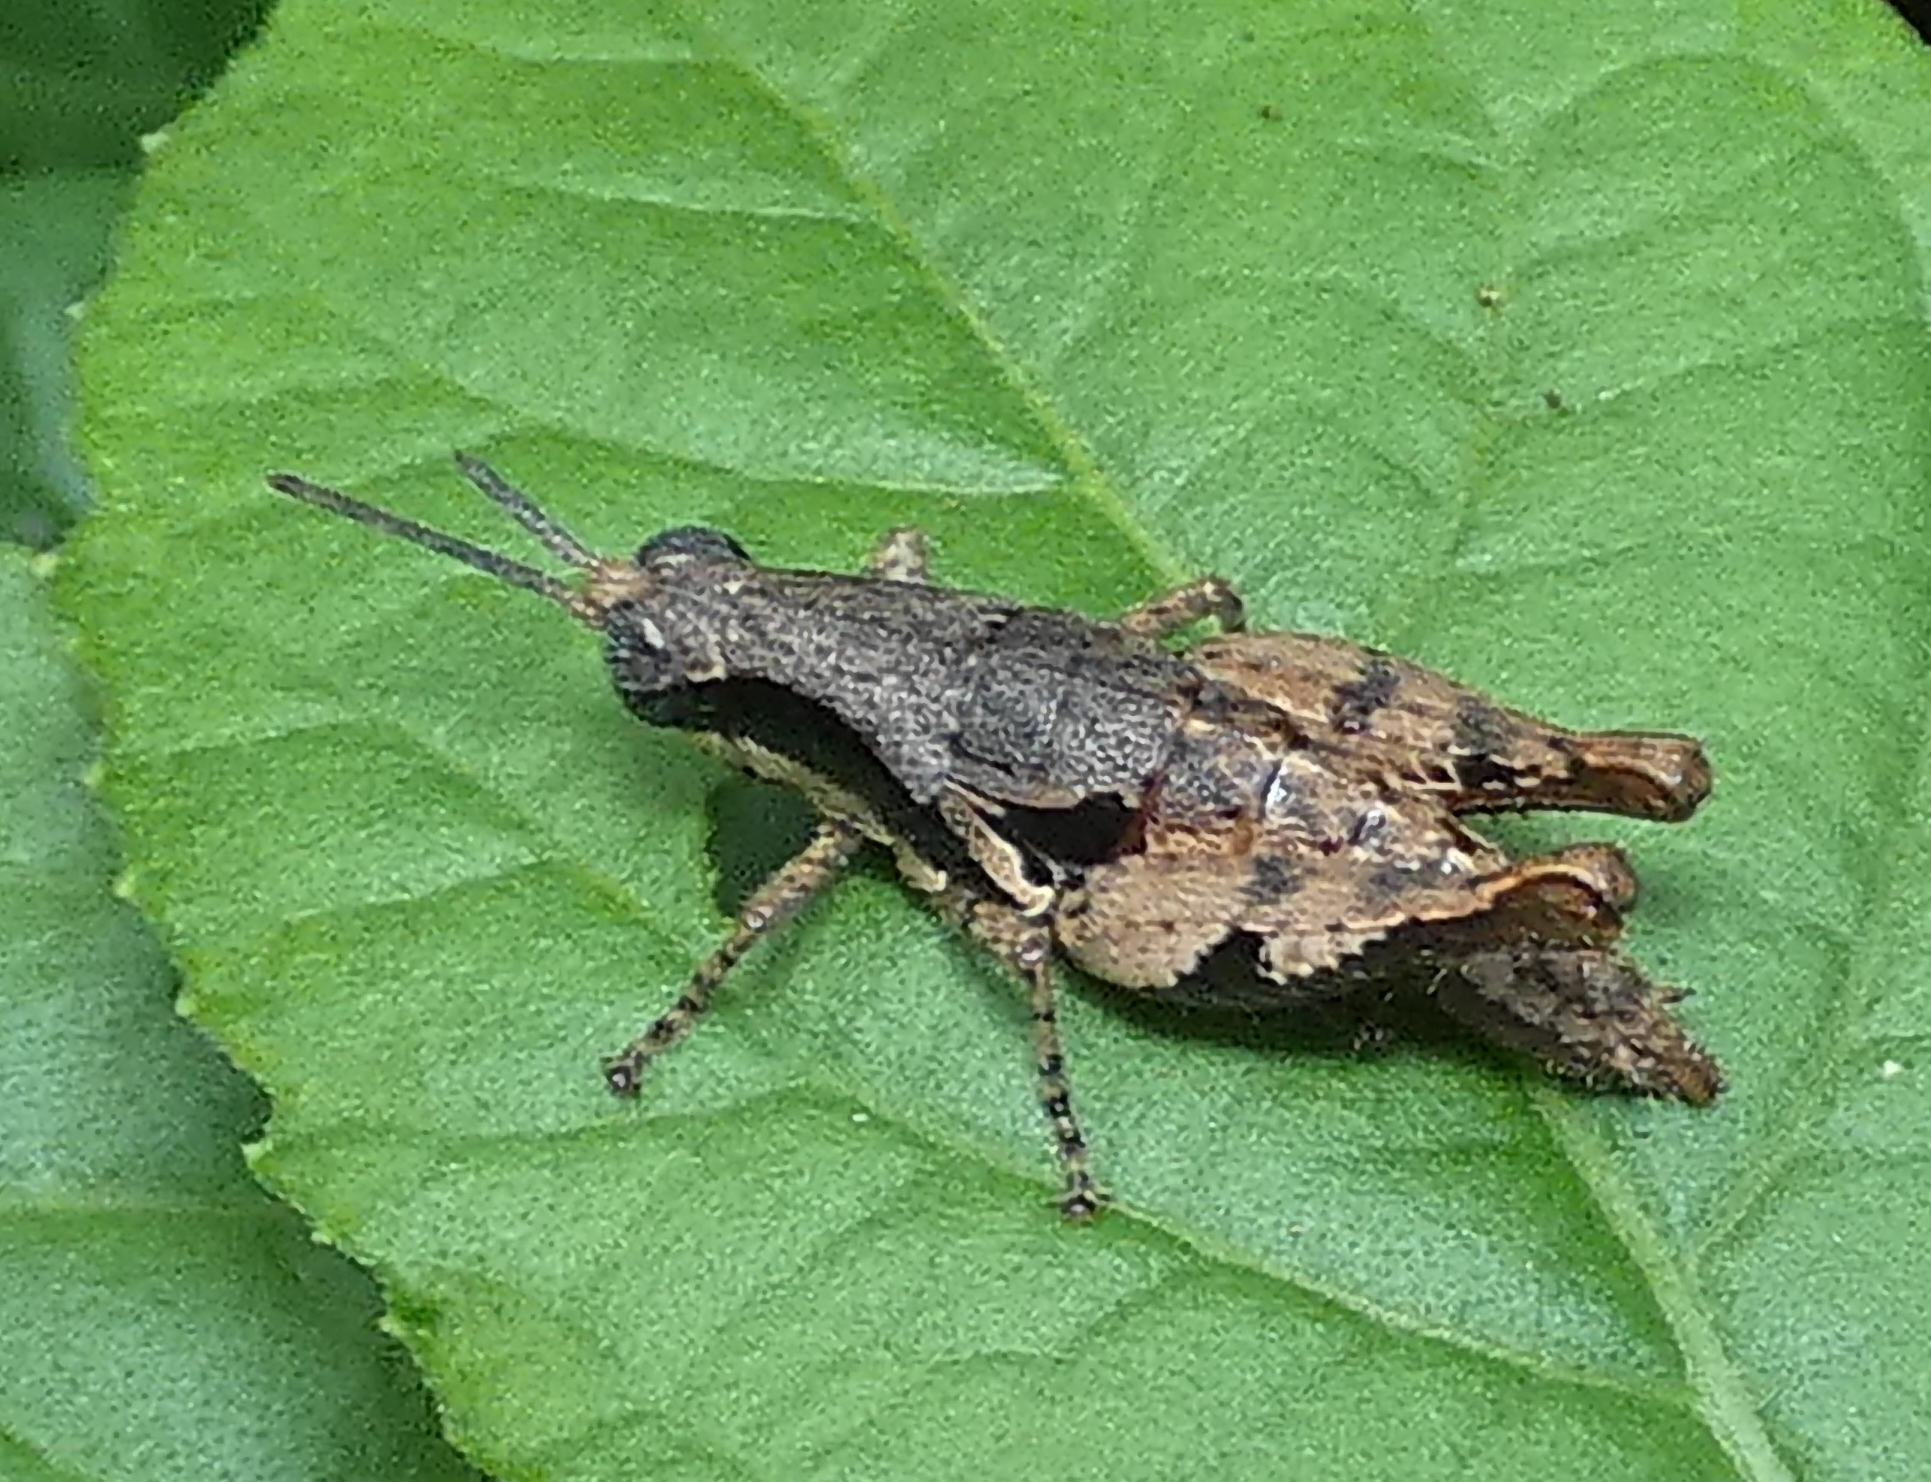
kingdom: Animalia
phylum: Arthropoda
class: Insecta
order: Orthoptera
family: Acrididae
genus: Eujivarus
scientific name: Eujivarus meridionalis
